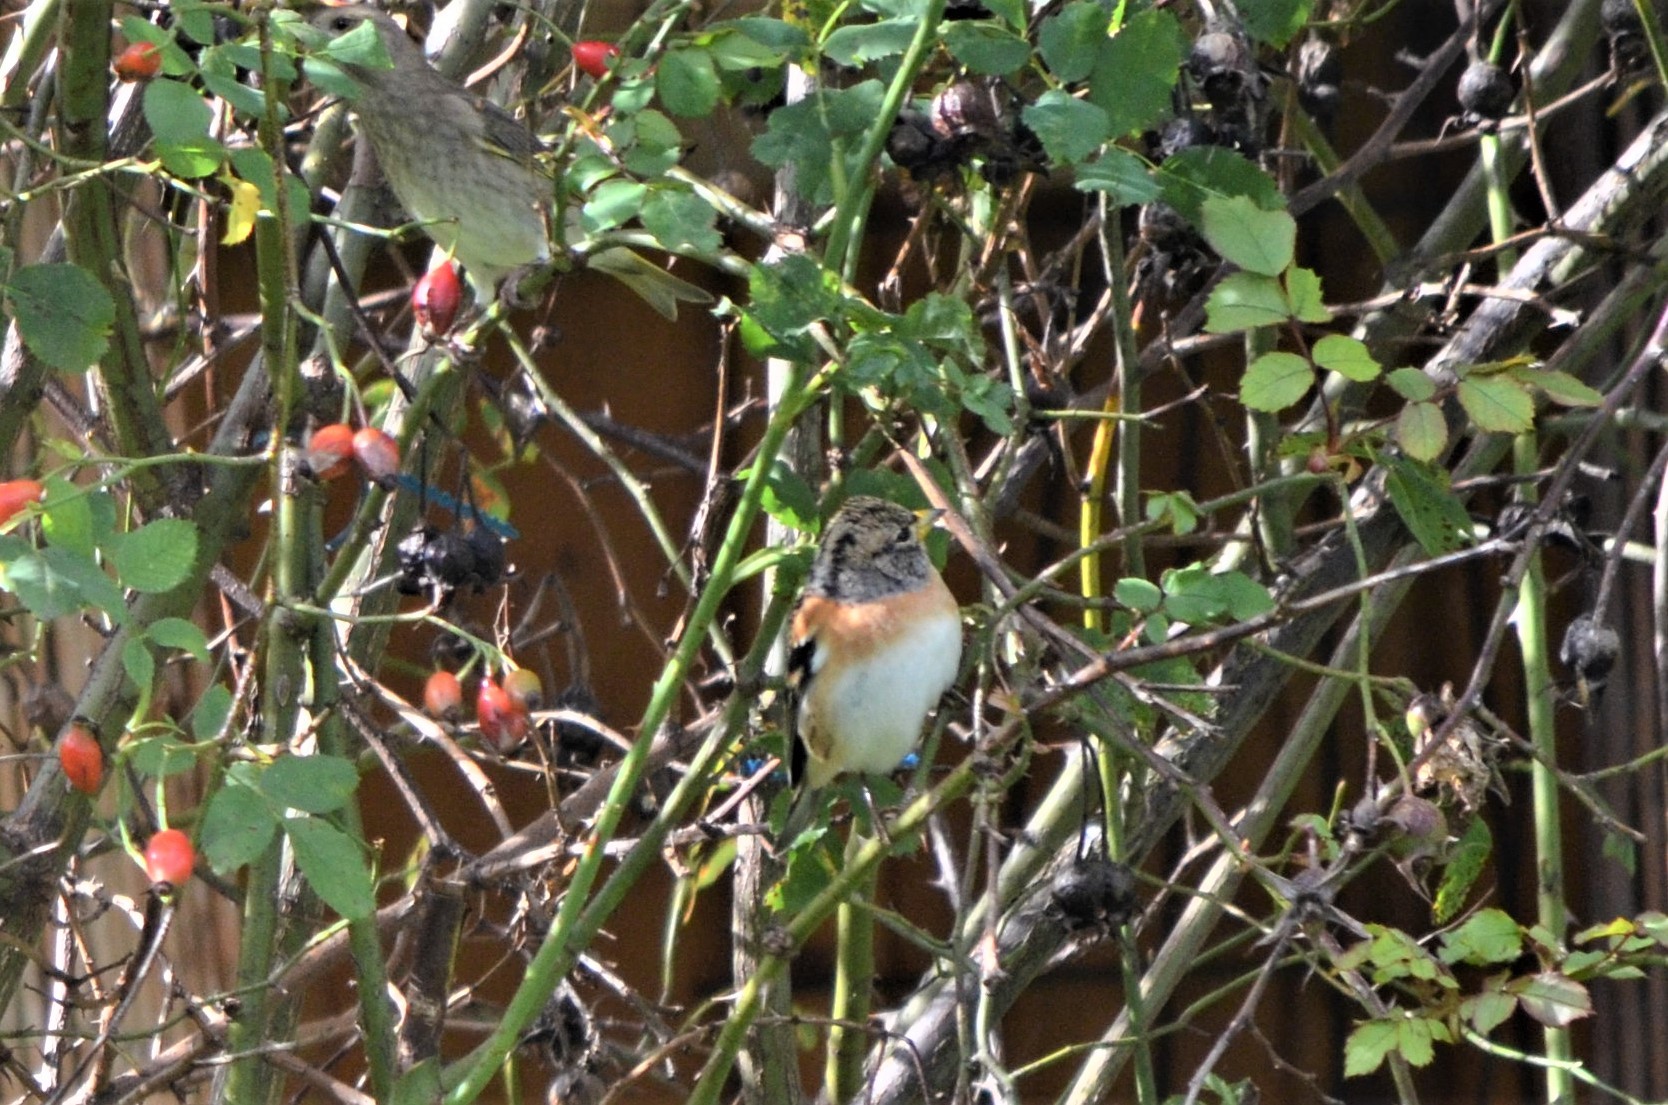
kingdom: Animalia
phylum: Chordata
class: Aves
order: Passeriformes
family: Fringillidae
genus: Fringilla
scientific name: Fringilla montifringilla
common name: Brambling
